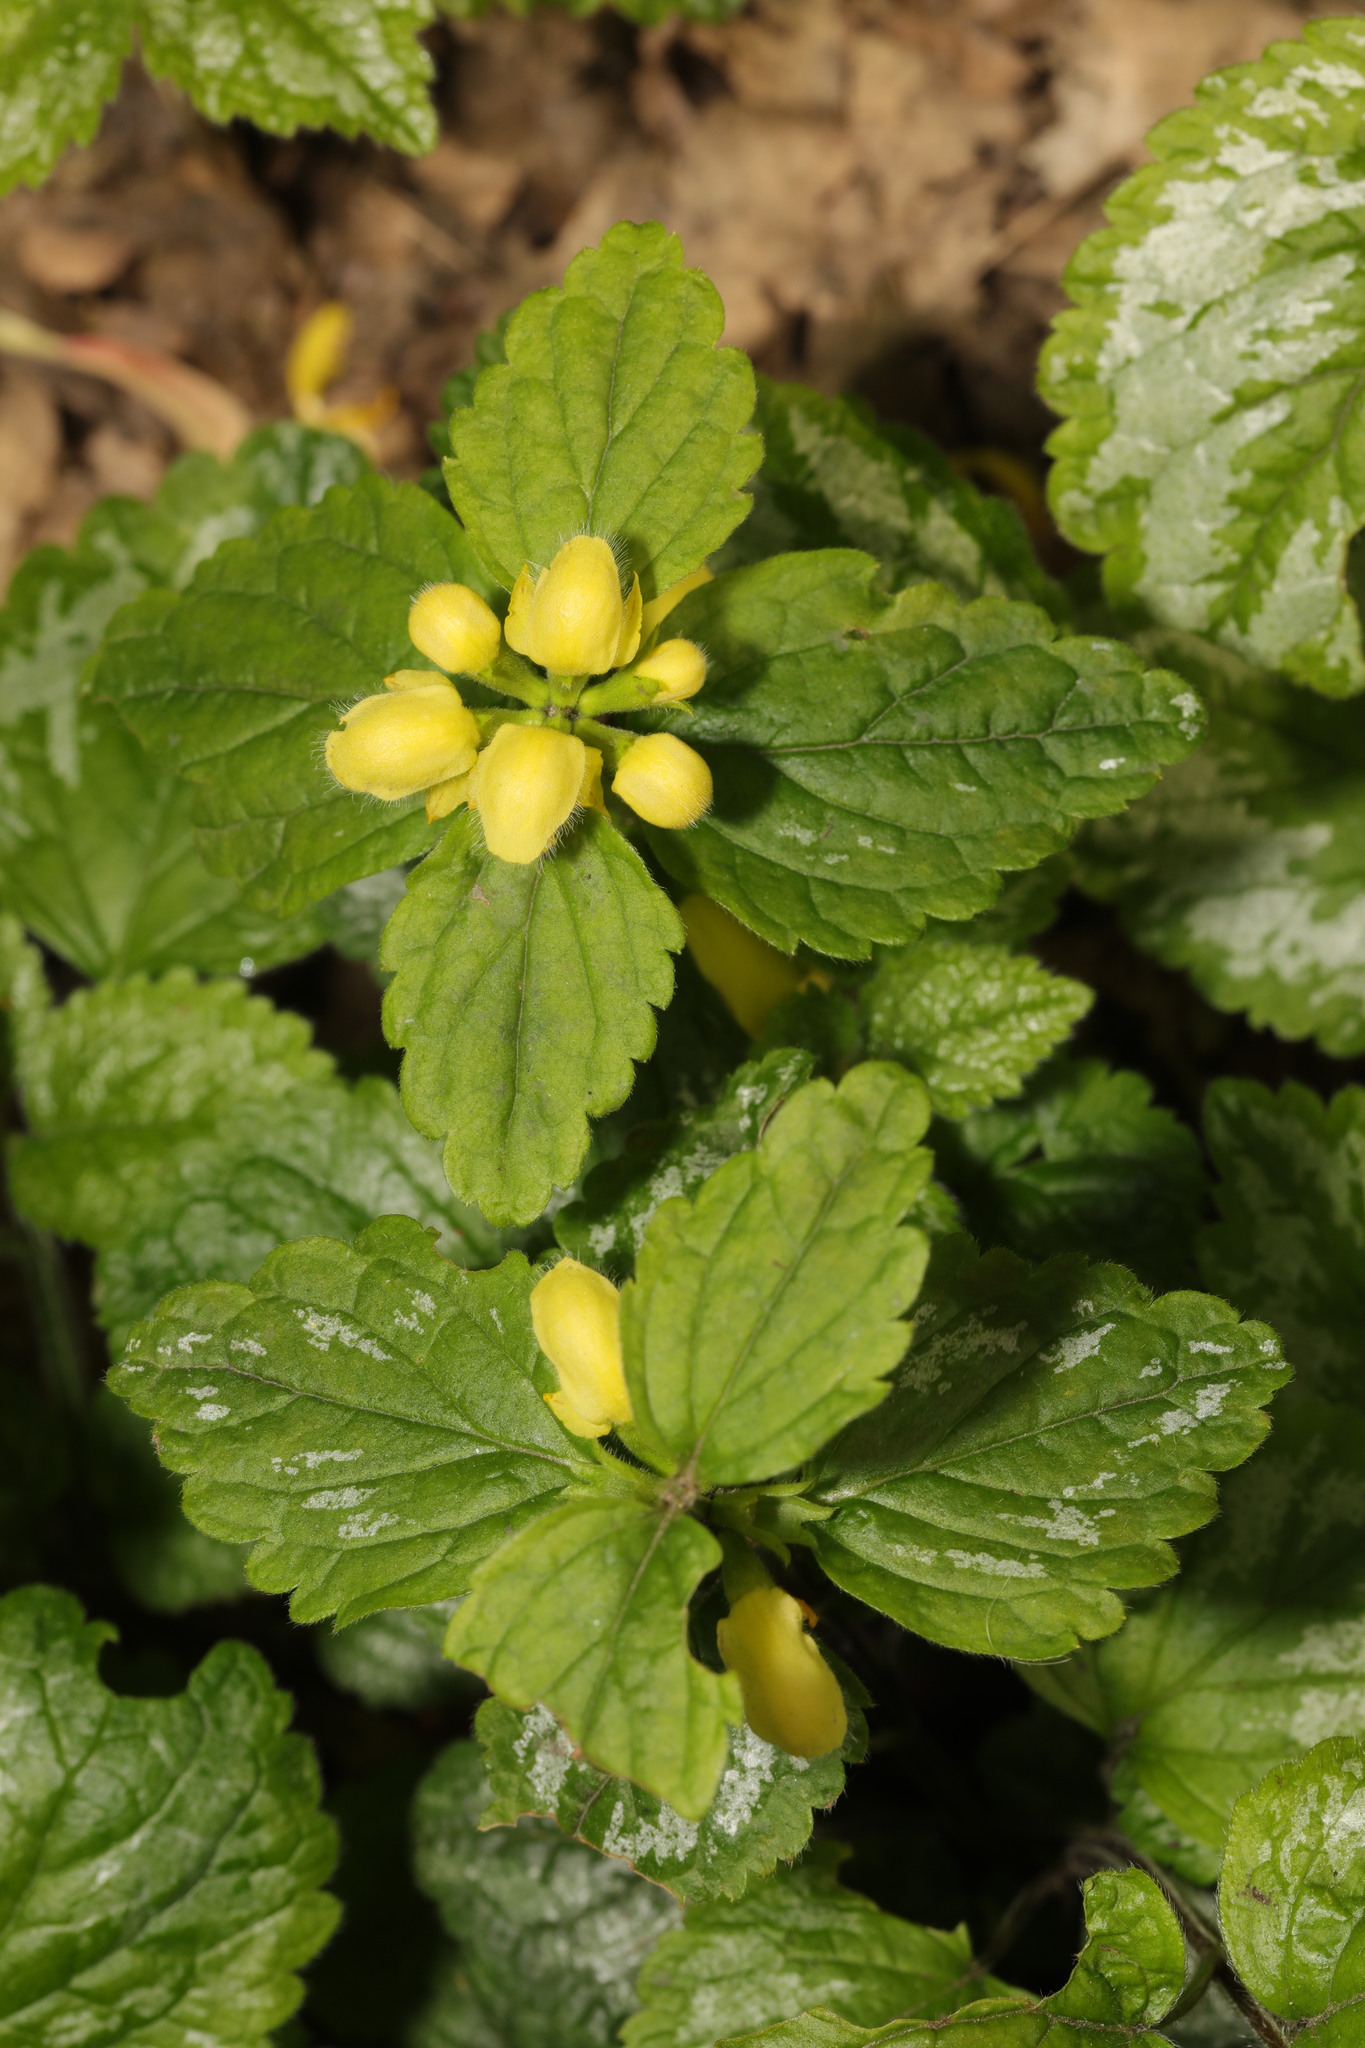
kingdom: Plantae
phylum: Tracheophyta
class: Magnoliopsida
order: Lamiales
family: Lamiaceae
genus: Lamium
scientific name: Lamium galeobdolon
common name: Yellow archangel
